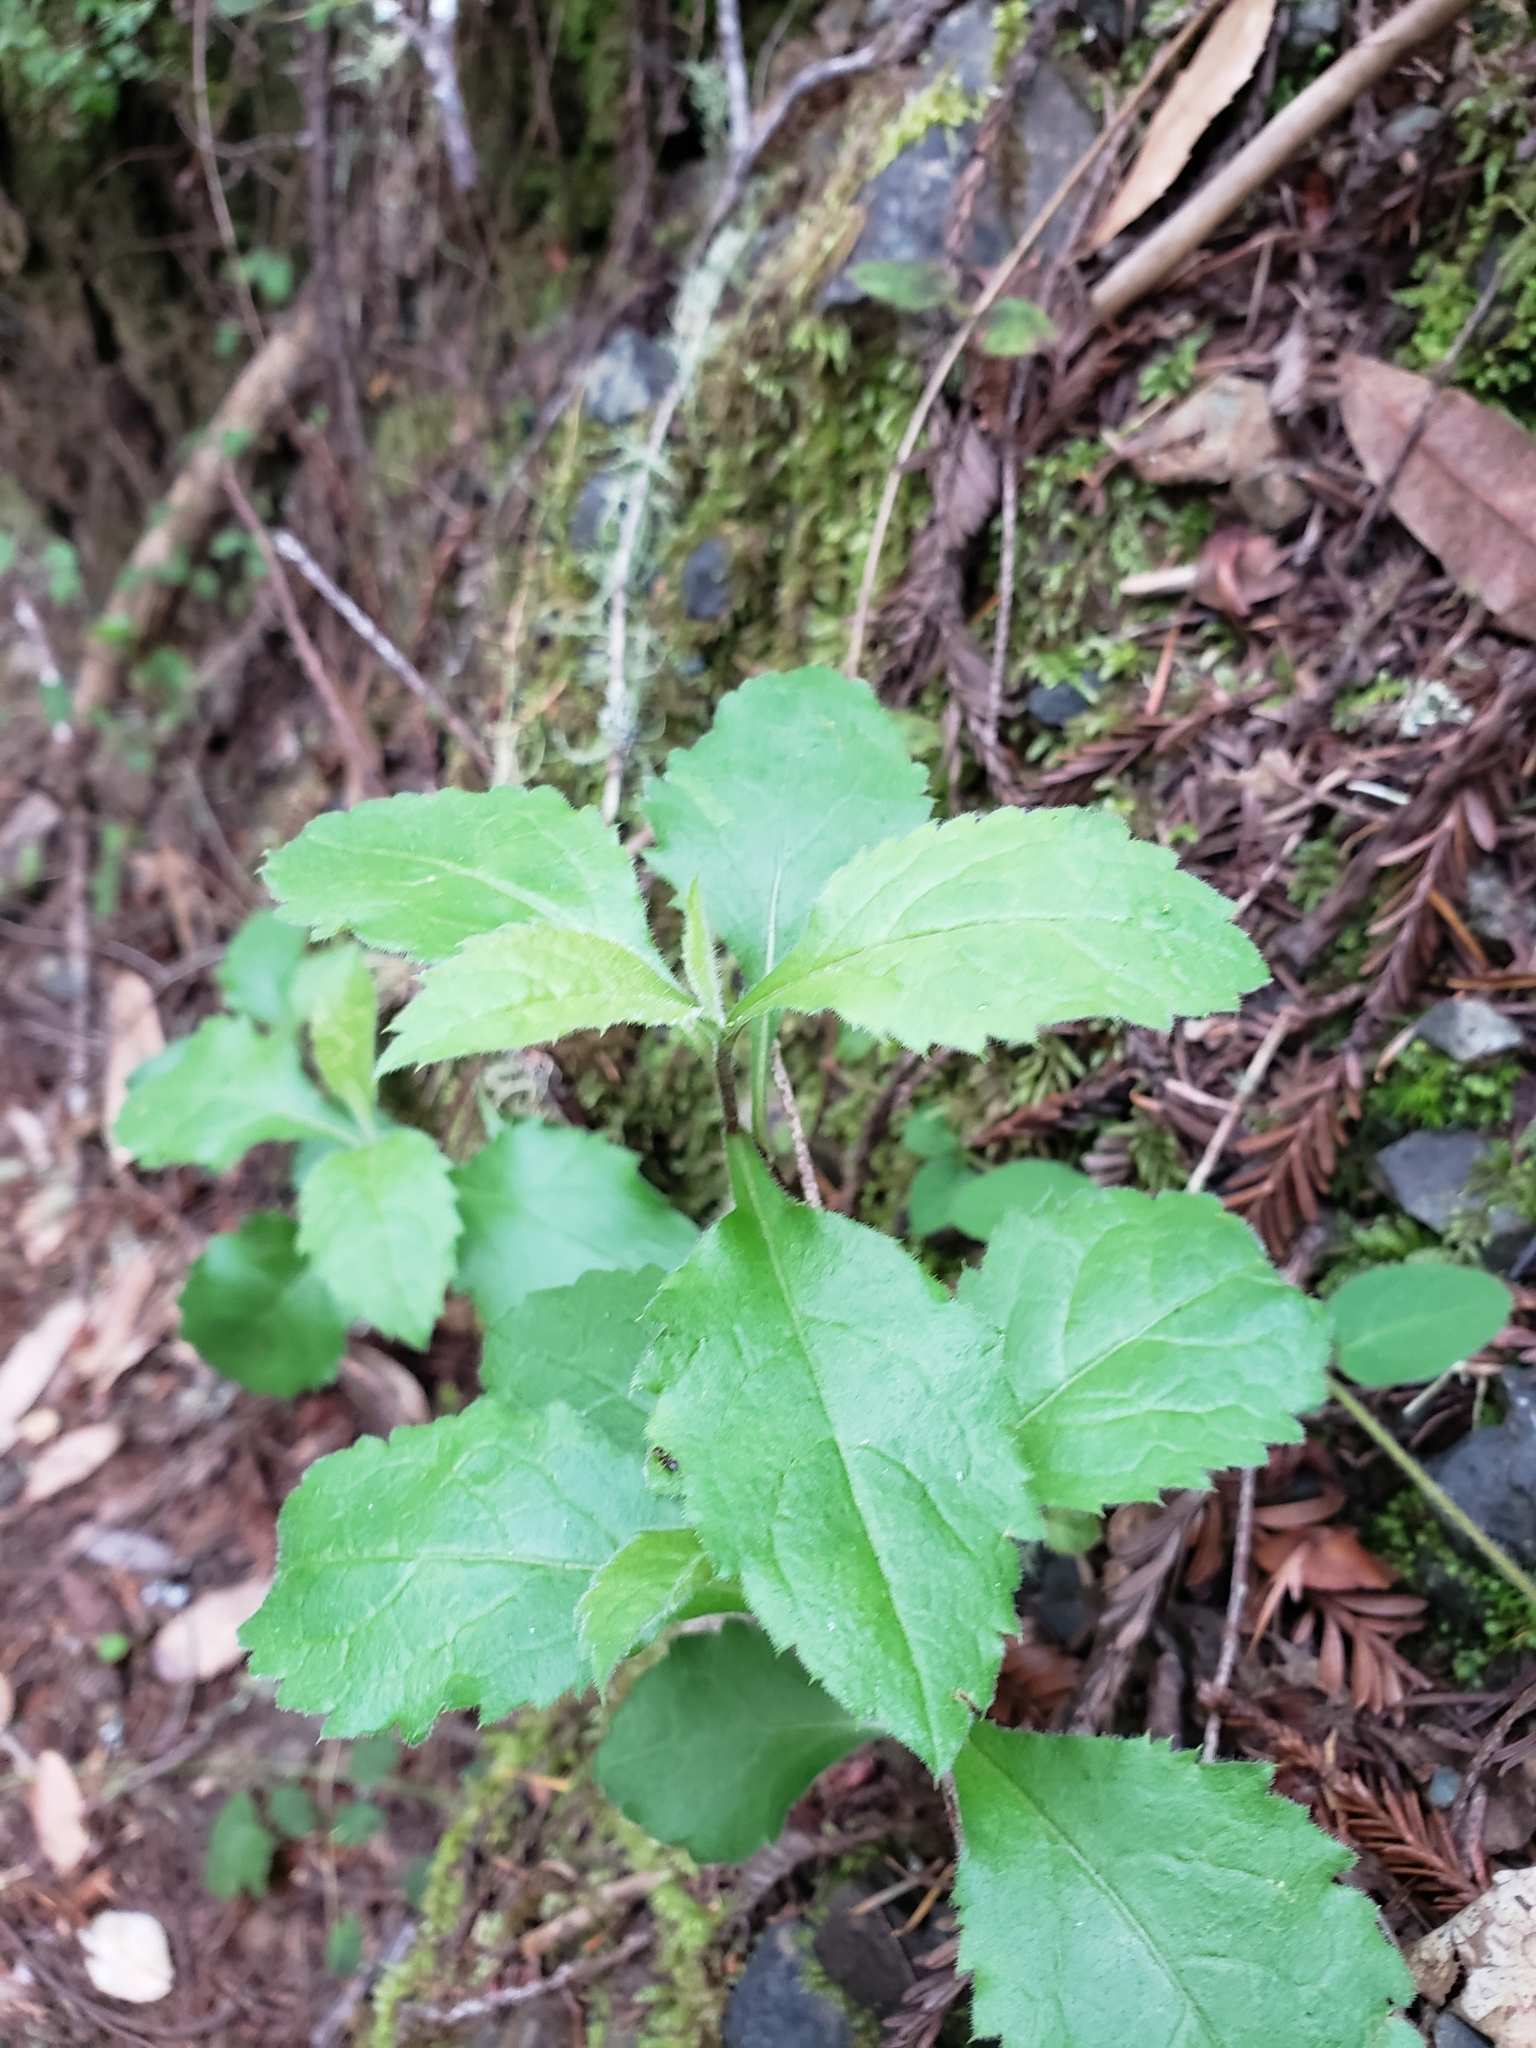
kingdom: Plantae
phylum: Tracheophyta
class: Magnoliopsida
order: Asterales
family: Asteraceae
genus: Eurybia
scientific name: Eurybia radulina
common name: Rough-leaved aster
